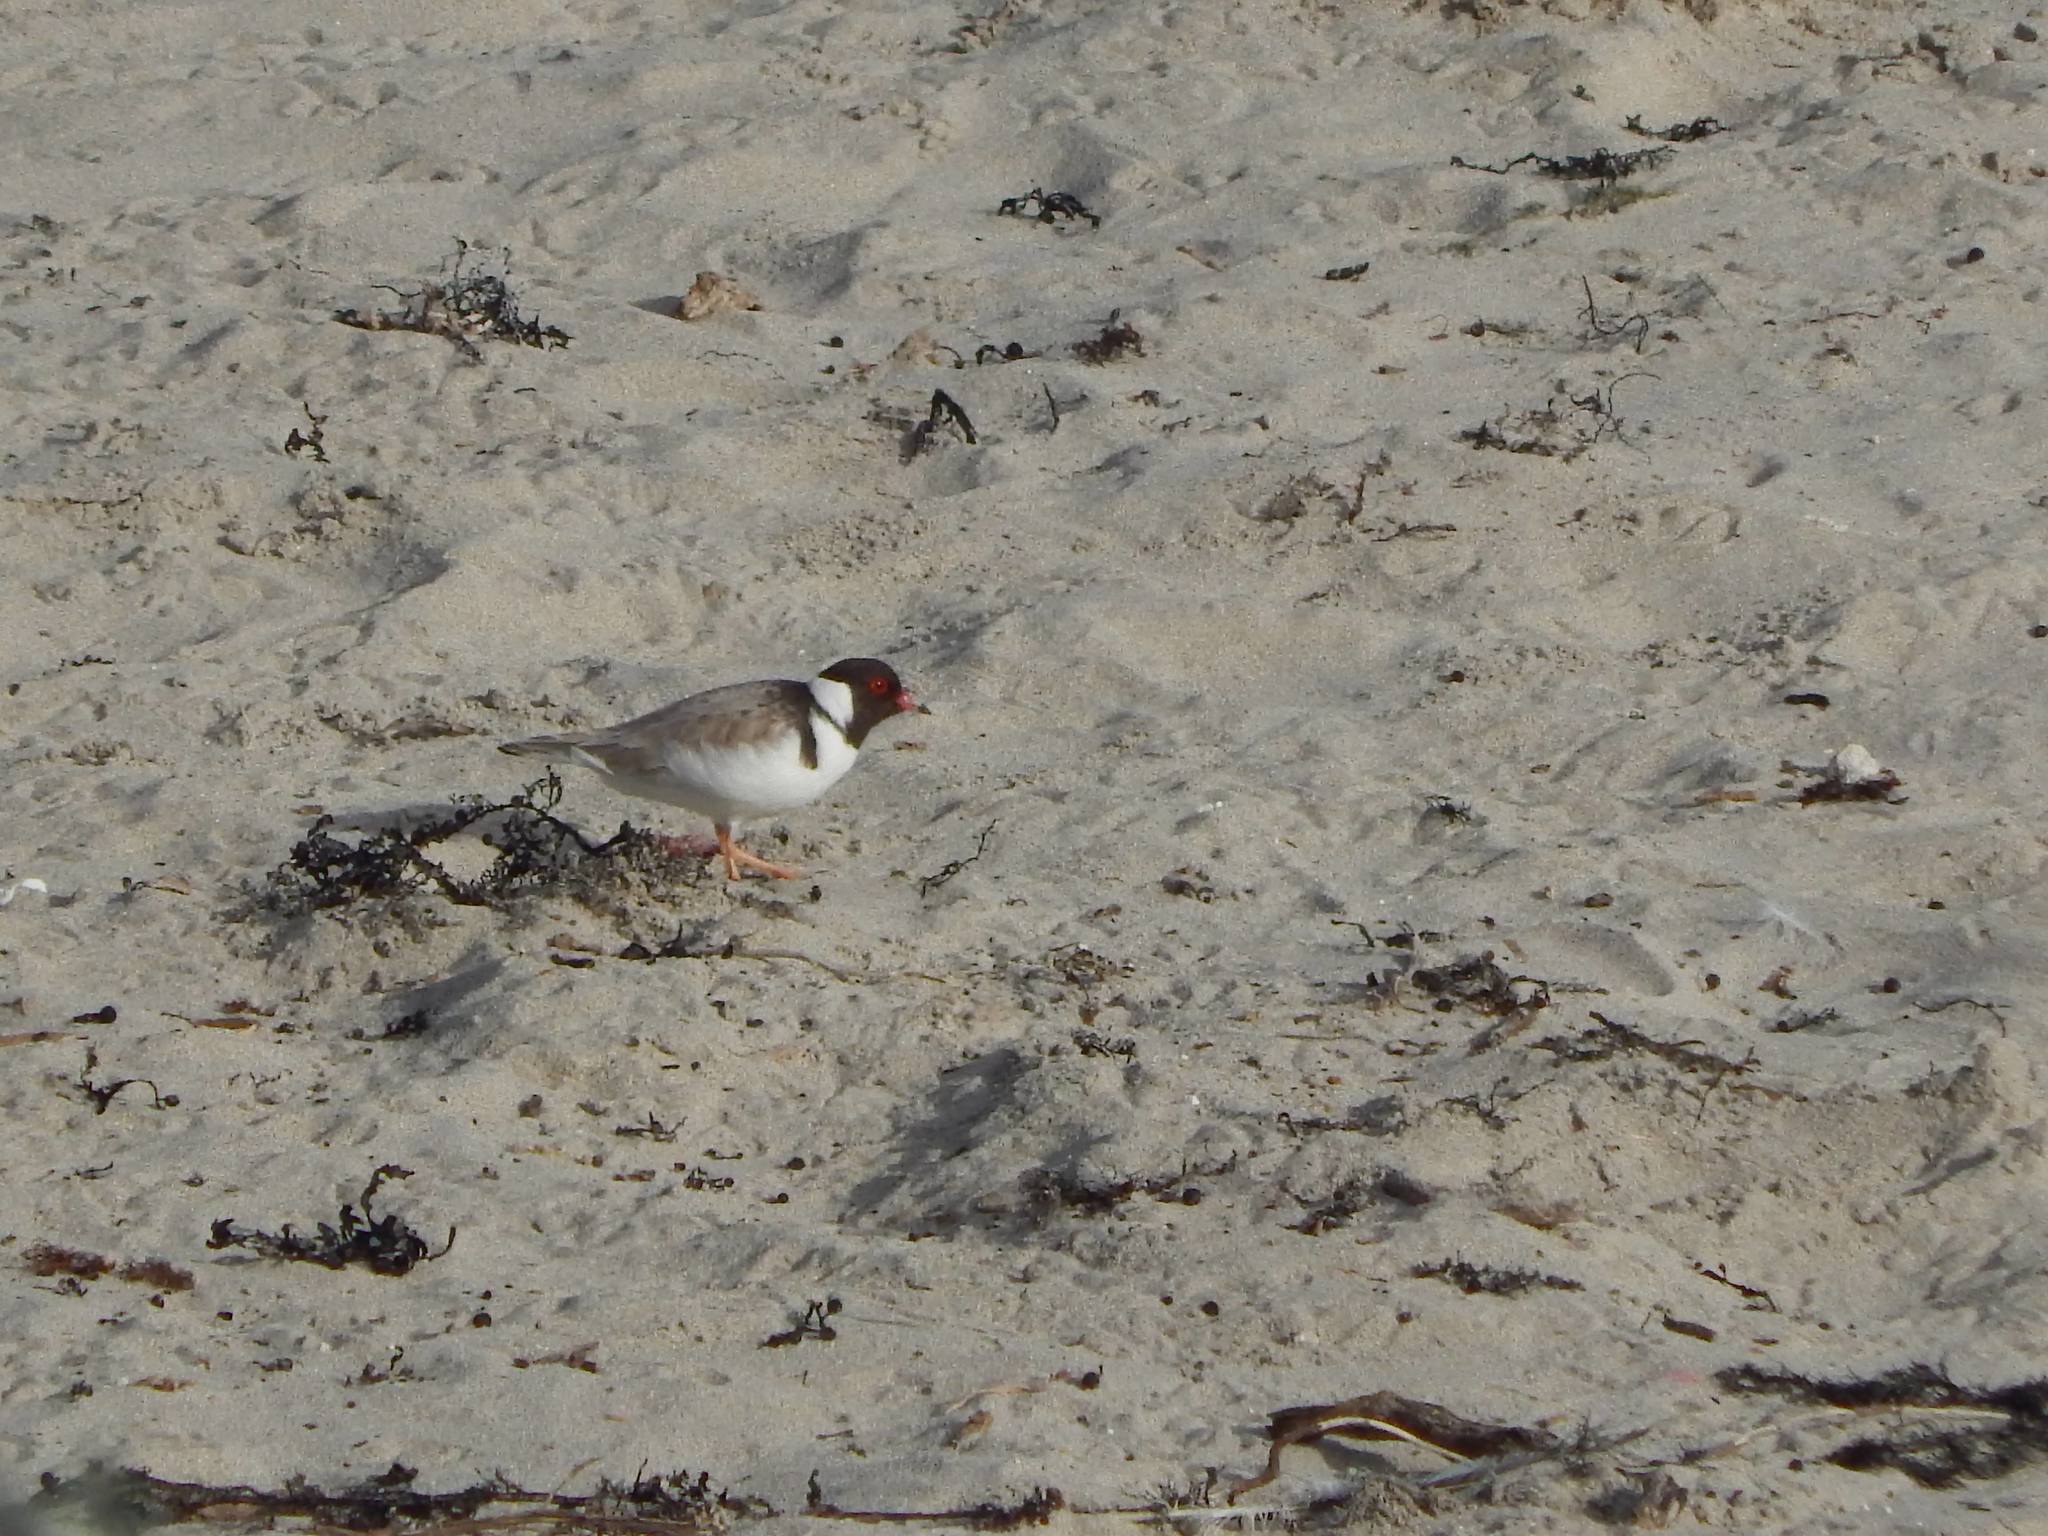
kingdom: Animalia
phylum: Chordata
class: Aves
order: Charadriiformes
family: Charadriidae
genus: Thinornis
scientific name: Thinornis cucullatus
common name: Hooded dotterel
